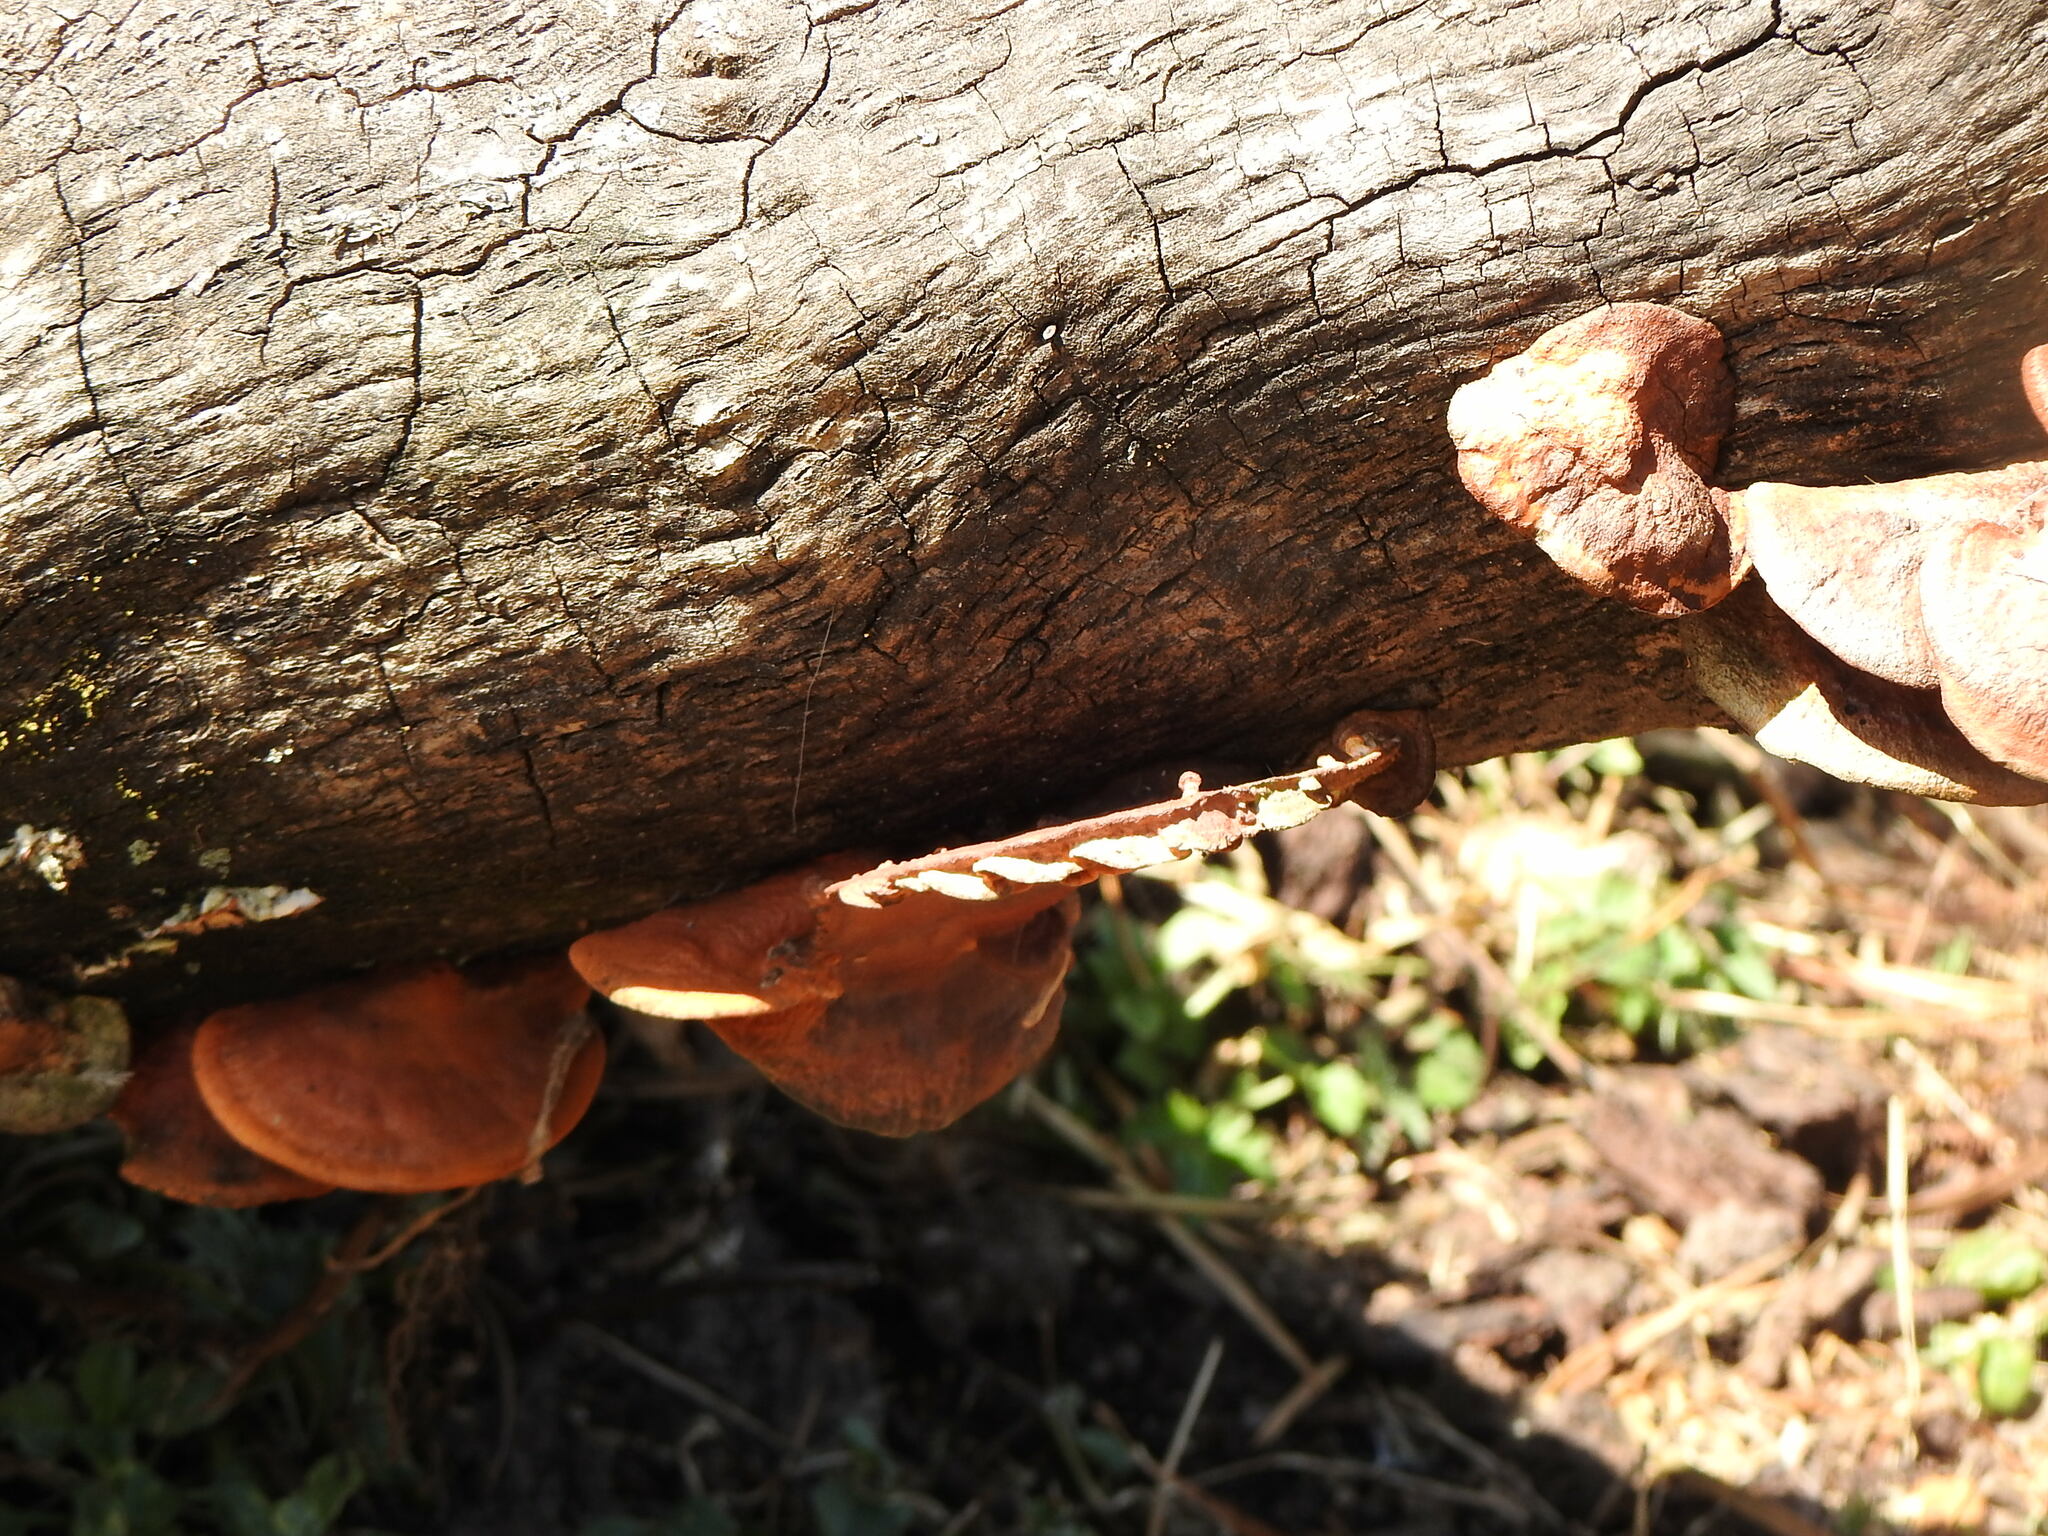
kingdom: Fungi
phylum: Basidiomycota
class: Agaricomycetes
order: Polyporales
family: Polyporaceae
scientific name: Polyporaceae
